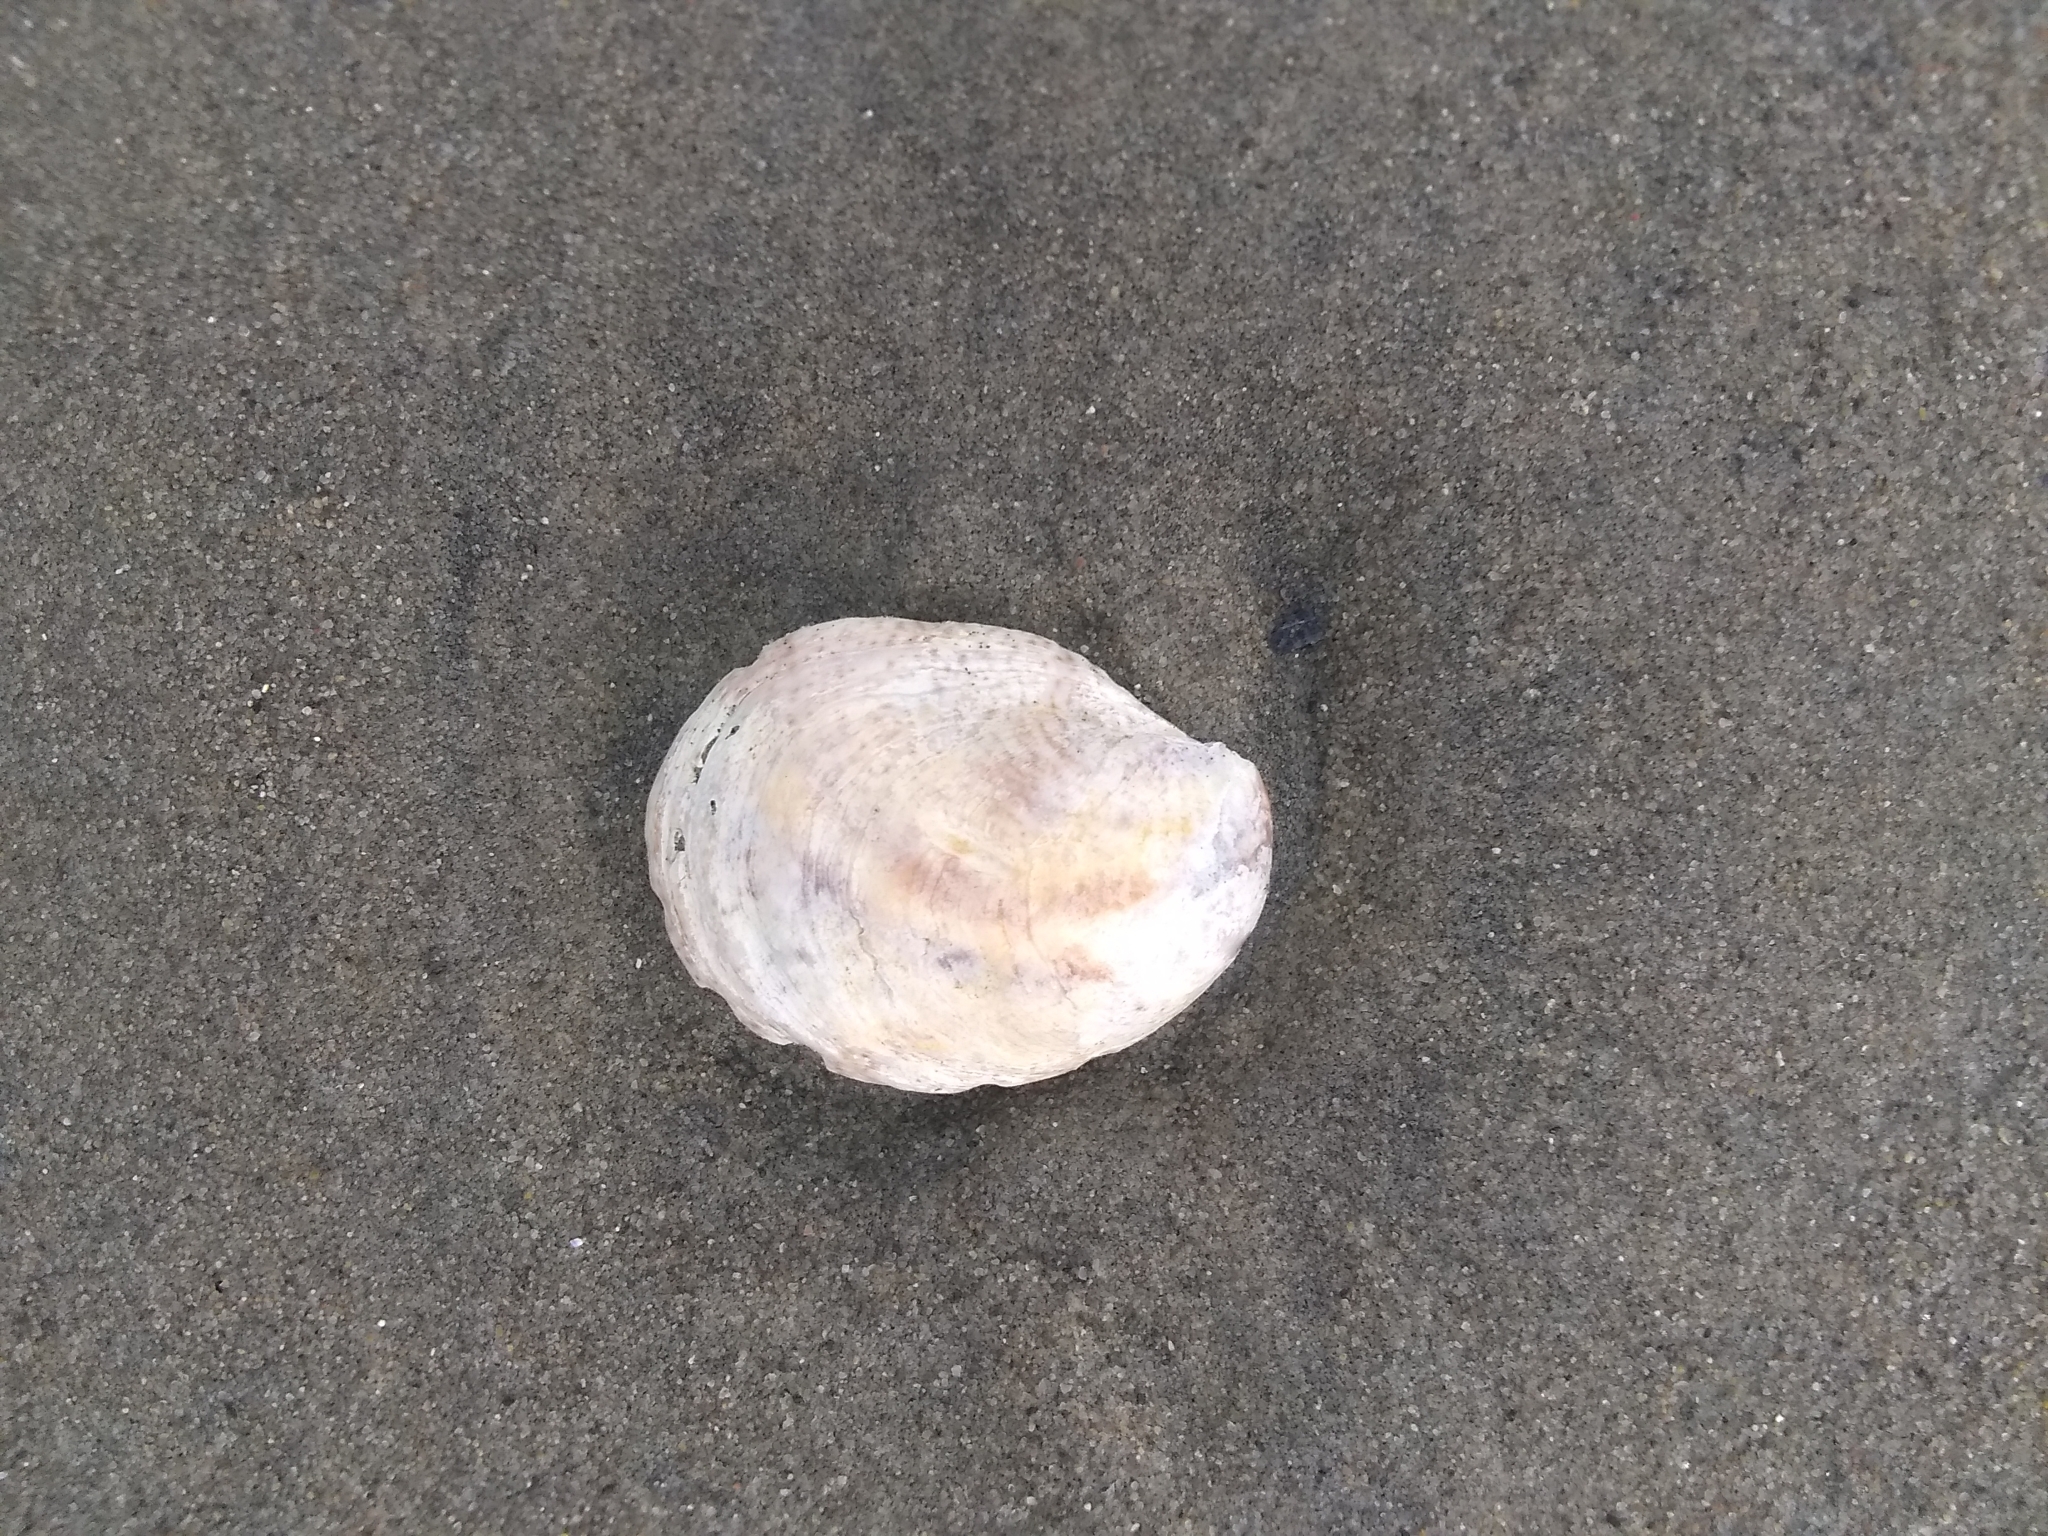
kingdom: Animalia
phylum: Mollusca
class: Gastropoda
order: Littorinimorpha
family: Calyptraeidae
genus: Crepidula
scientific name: Crepidula fornicata
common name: Slipper limpet
